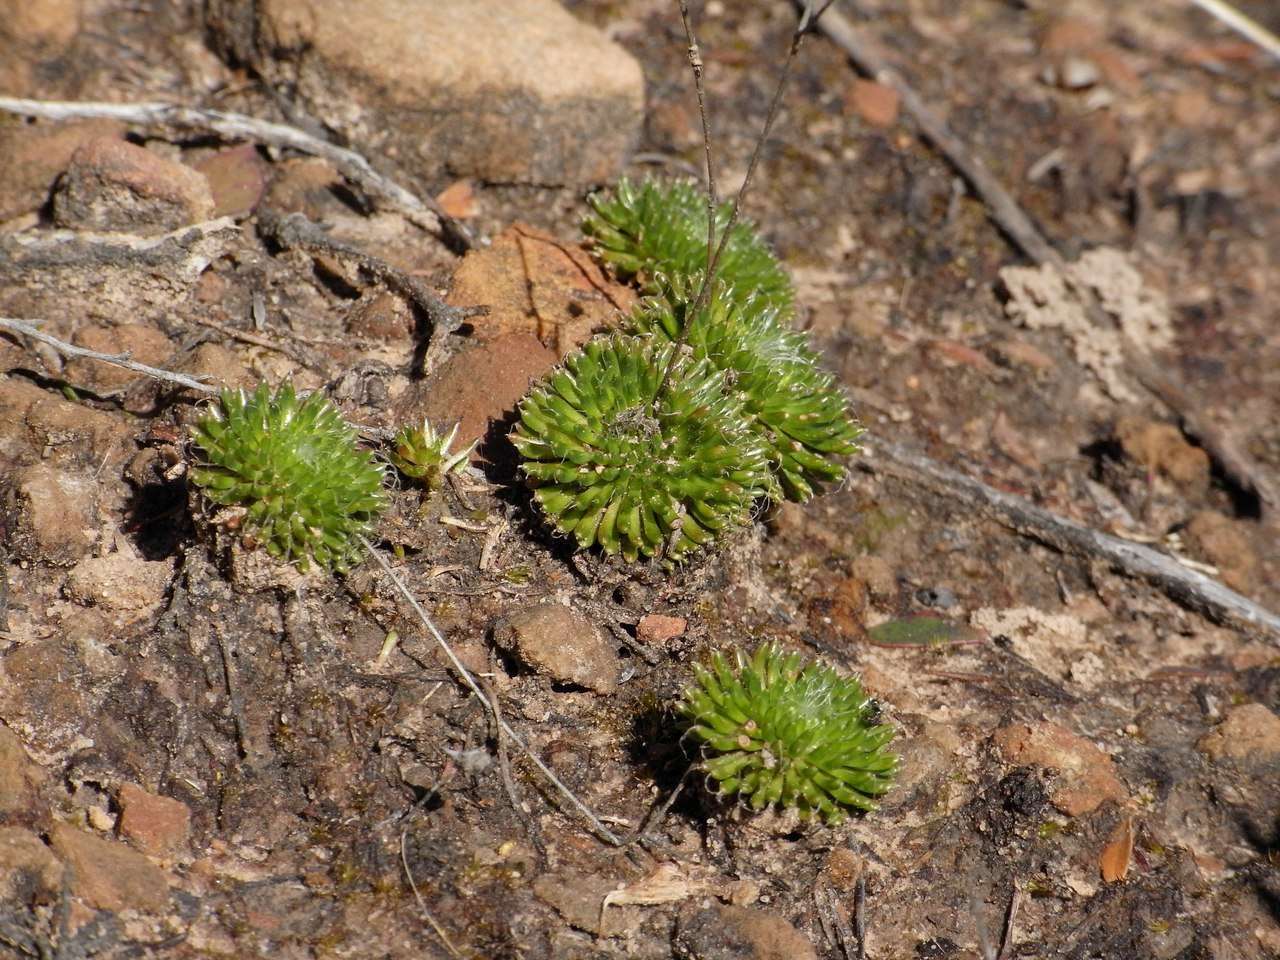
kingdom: Plantae
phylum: Tracheophyta
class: Magnoliopsida
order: Asterales
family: Stylidiaceae
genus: Stylidium
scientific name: Stylidium soboliferum
